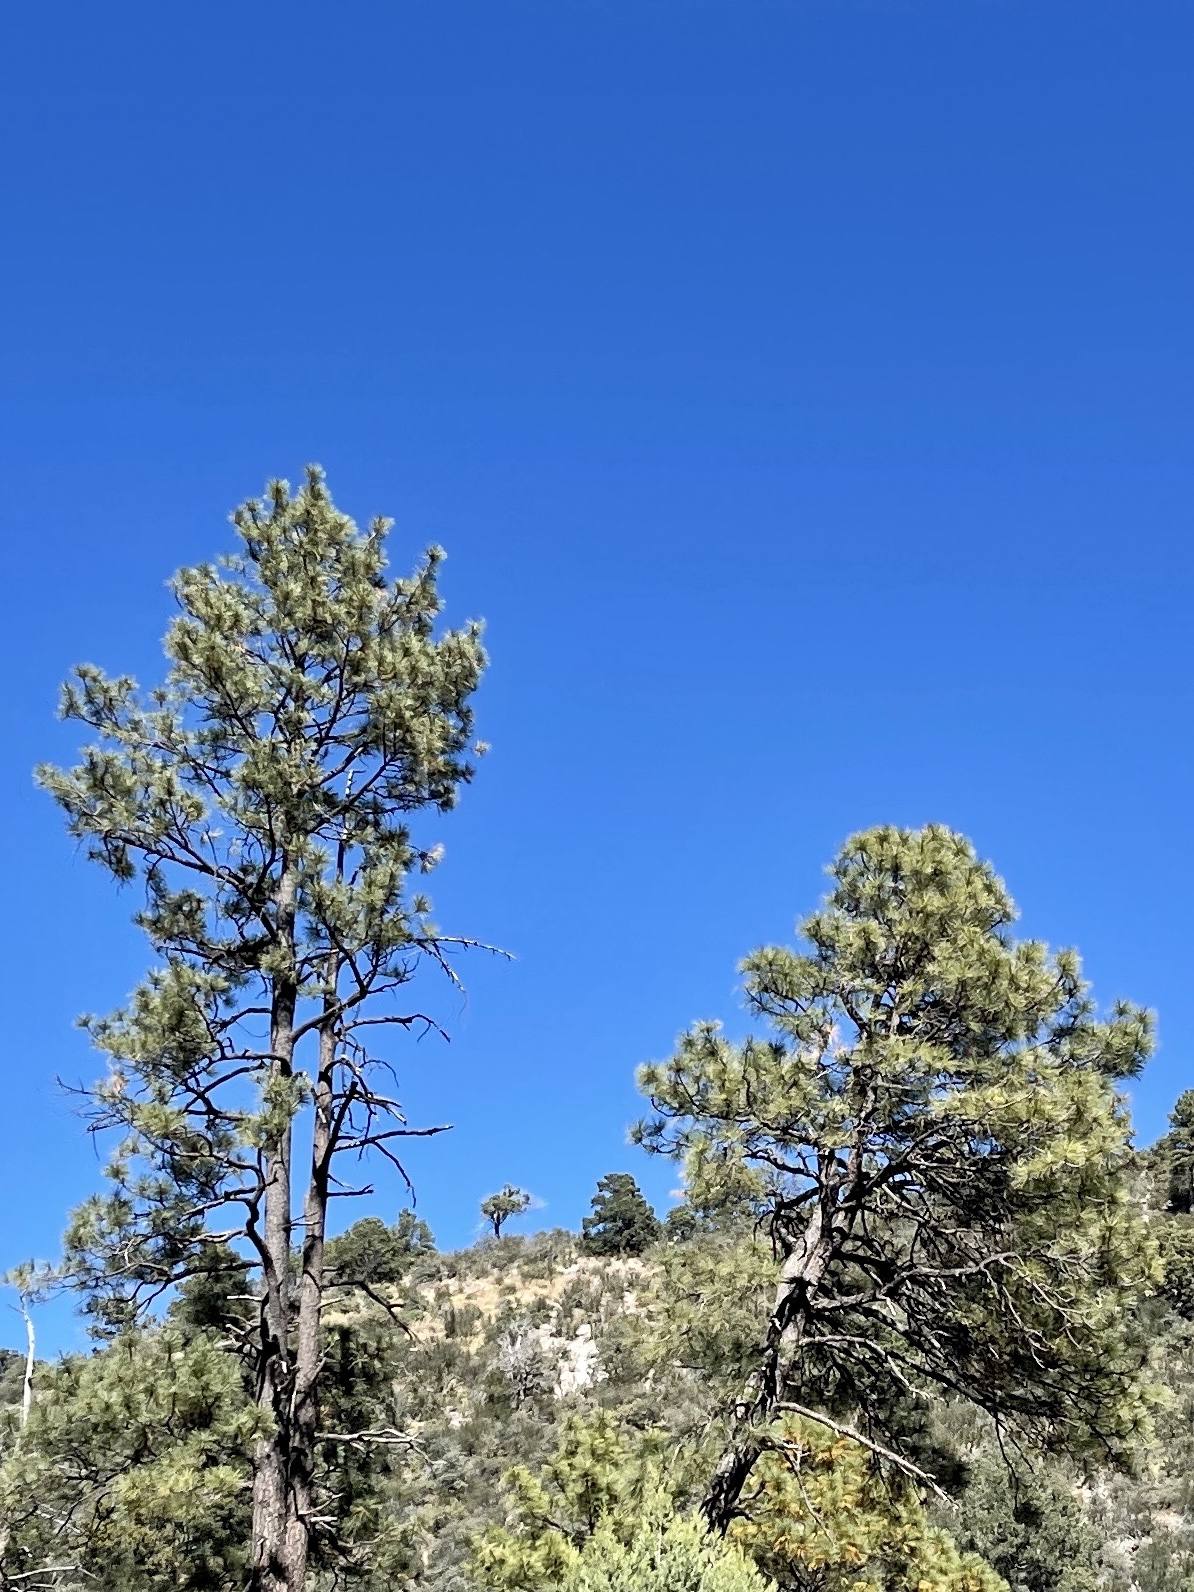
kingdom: Plantae
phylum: Tracheophyta
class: Pinopsida
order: Pinales
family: Pinaceae
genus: Pinus
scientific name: Pinus ponderosa
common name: Western yellow-pine
